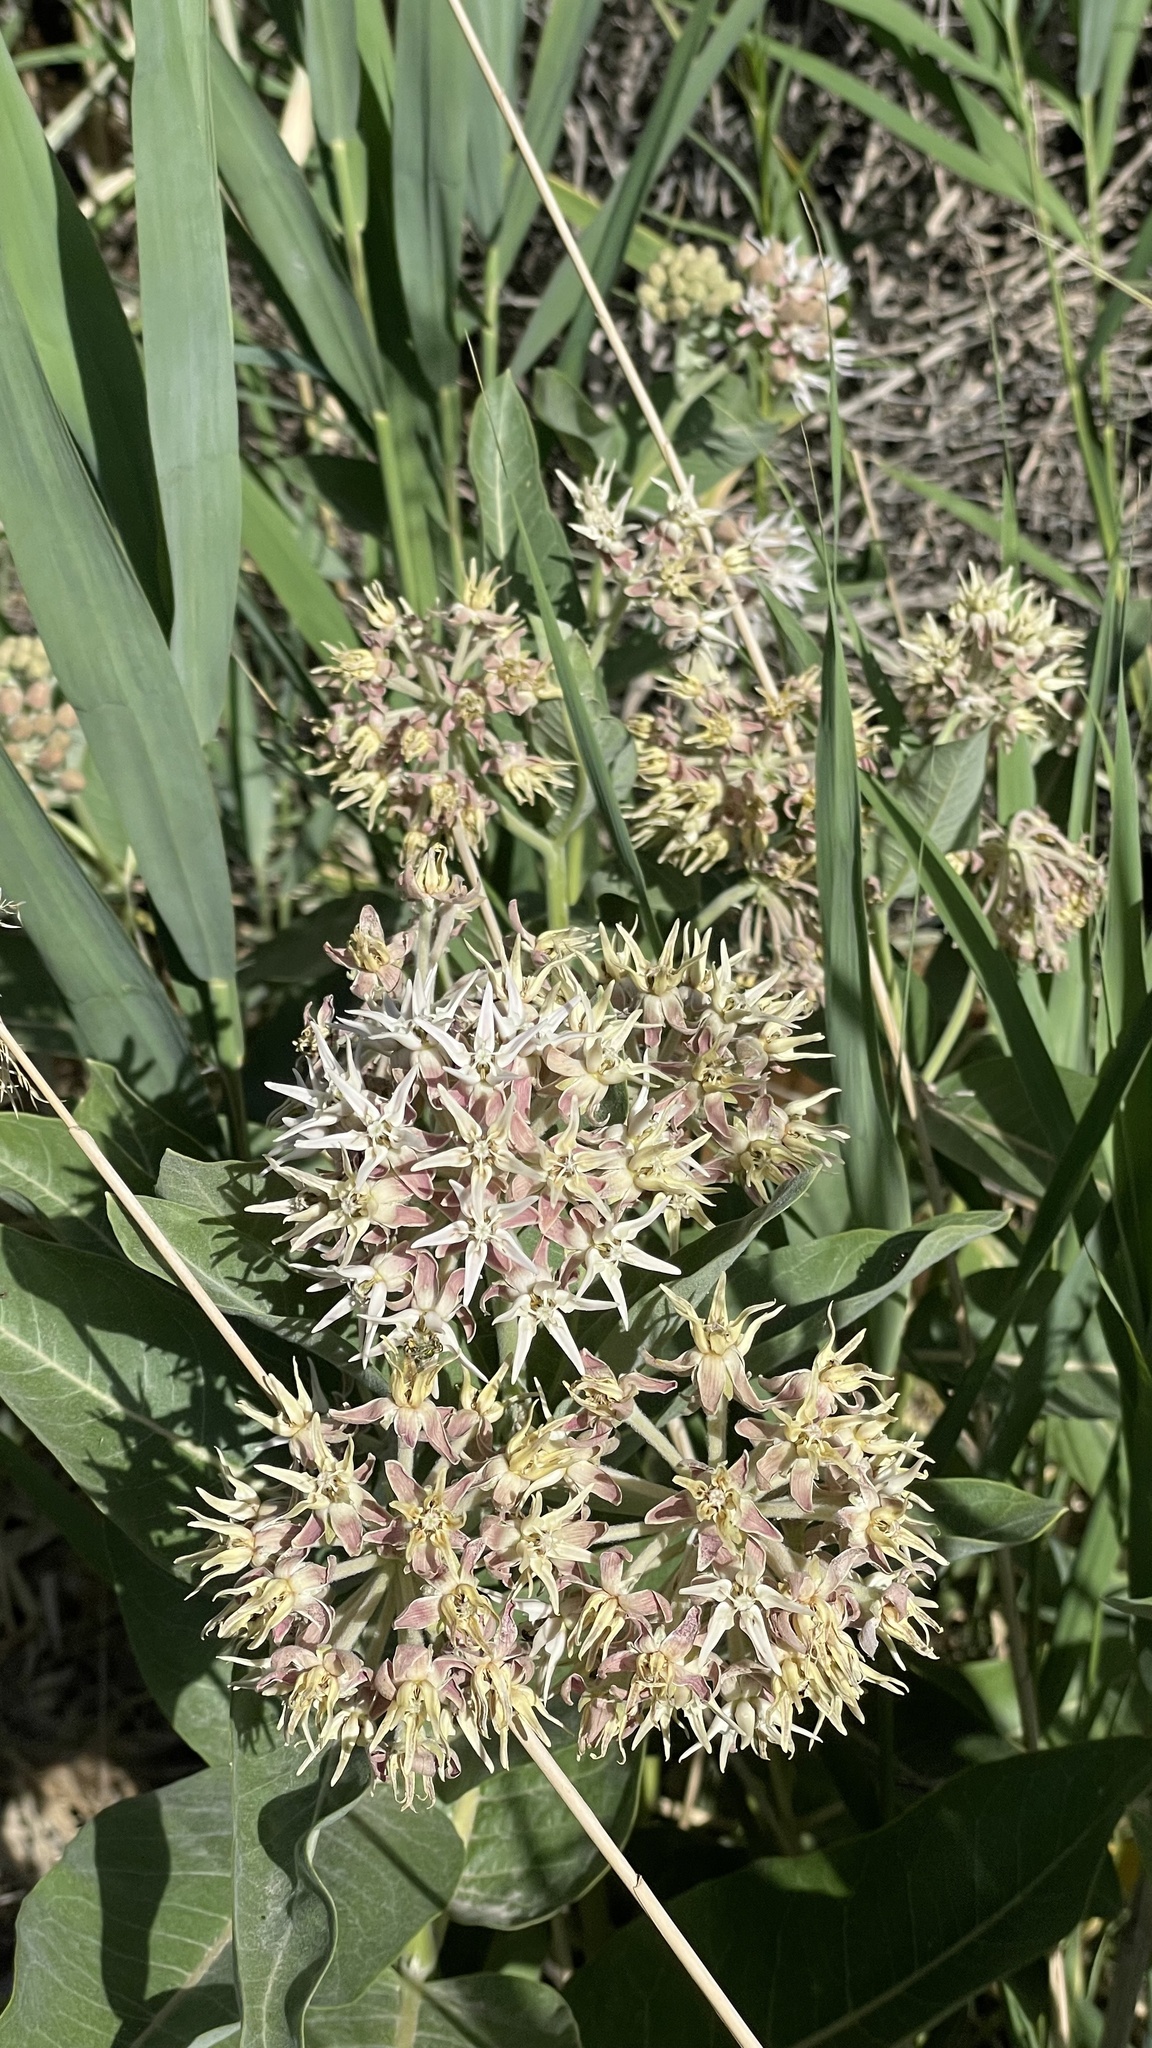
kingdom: Plantae
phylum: Tracheophyta
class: Magnoliopsida
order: Gentianales
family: Apocynaceae
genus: Asclepias
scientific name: Asclepias speciosa
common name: Showy milkweed
